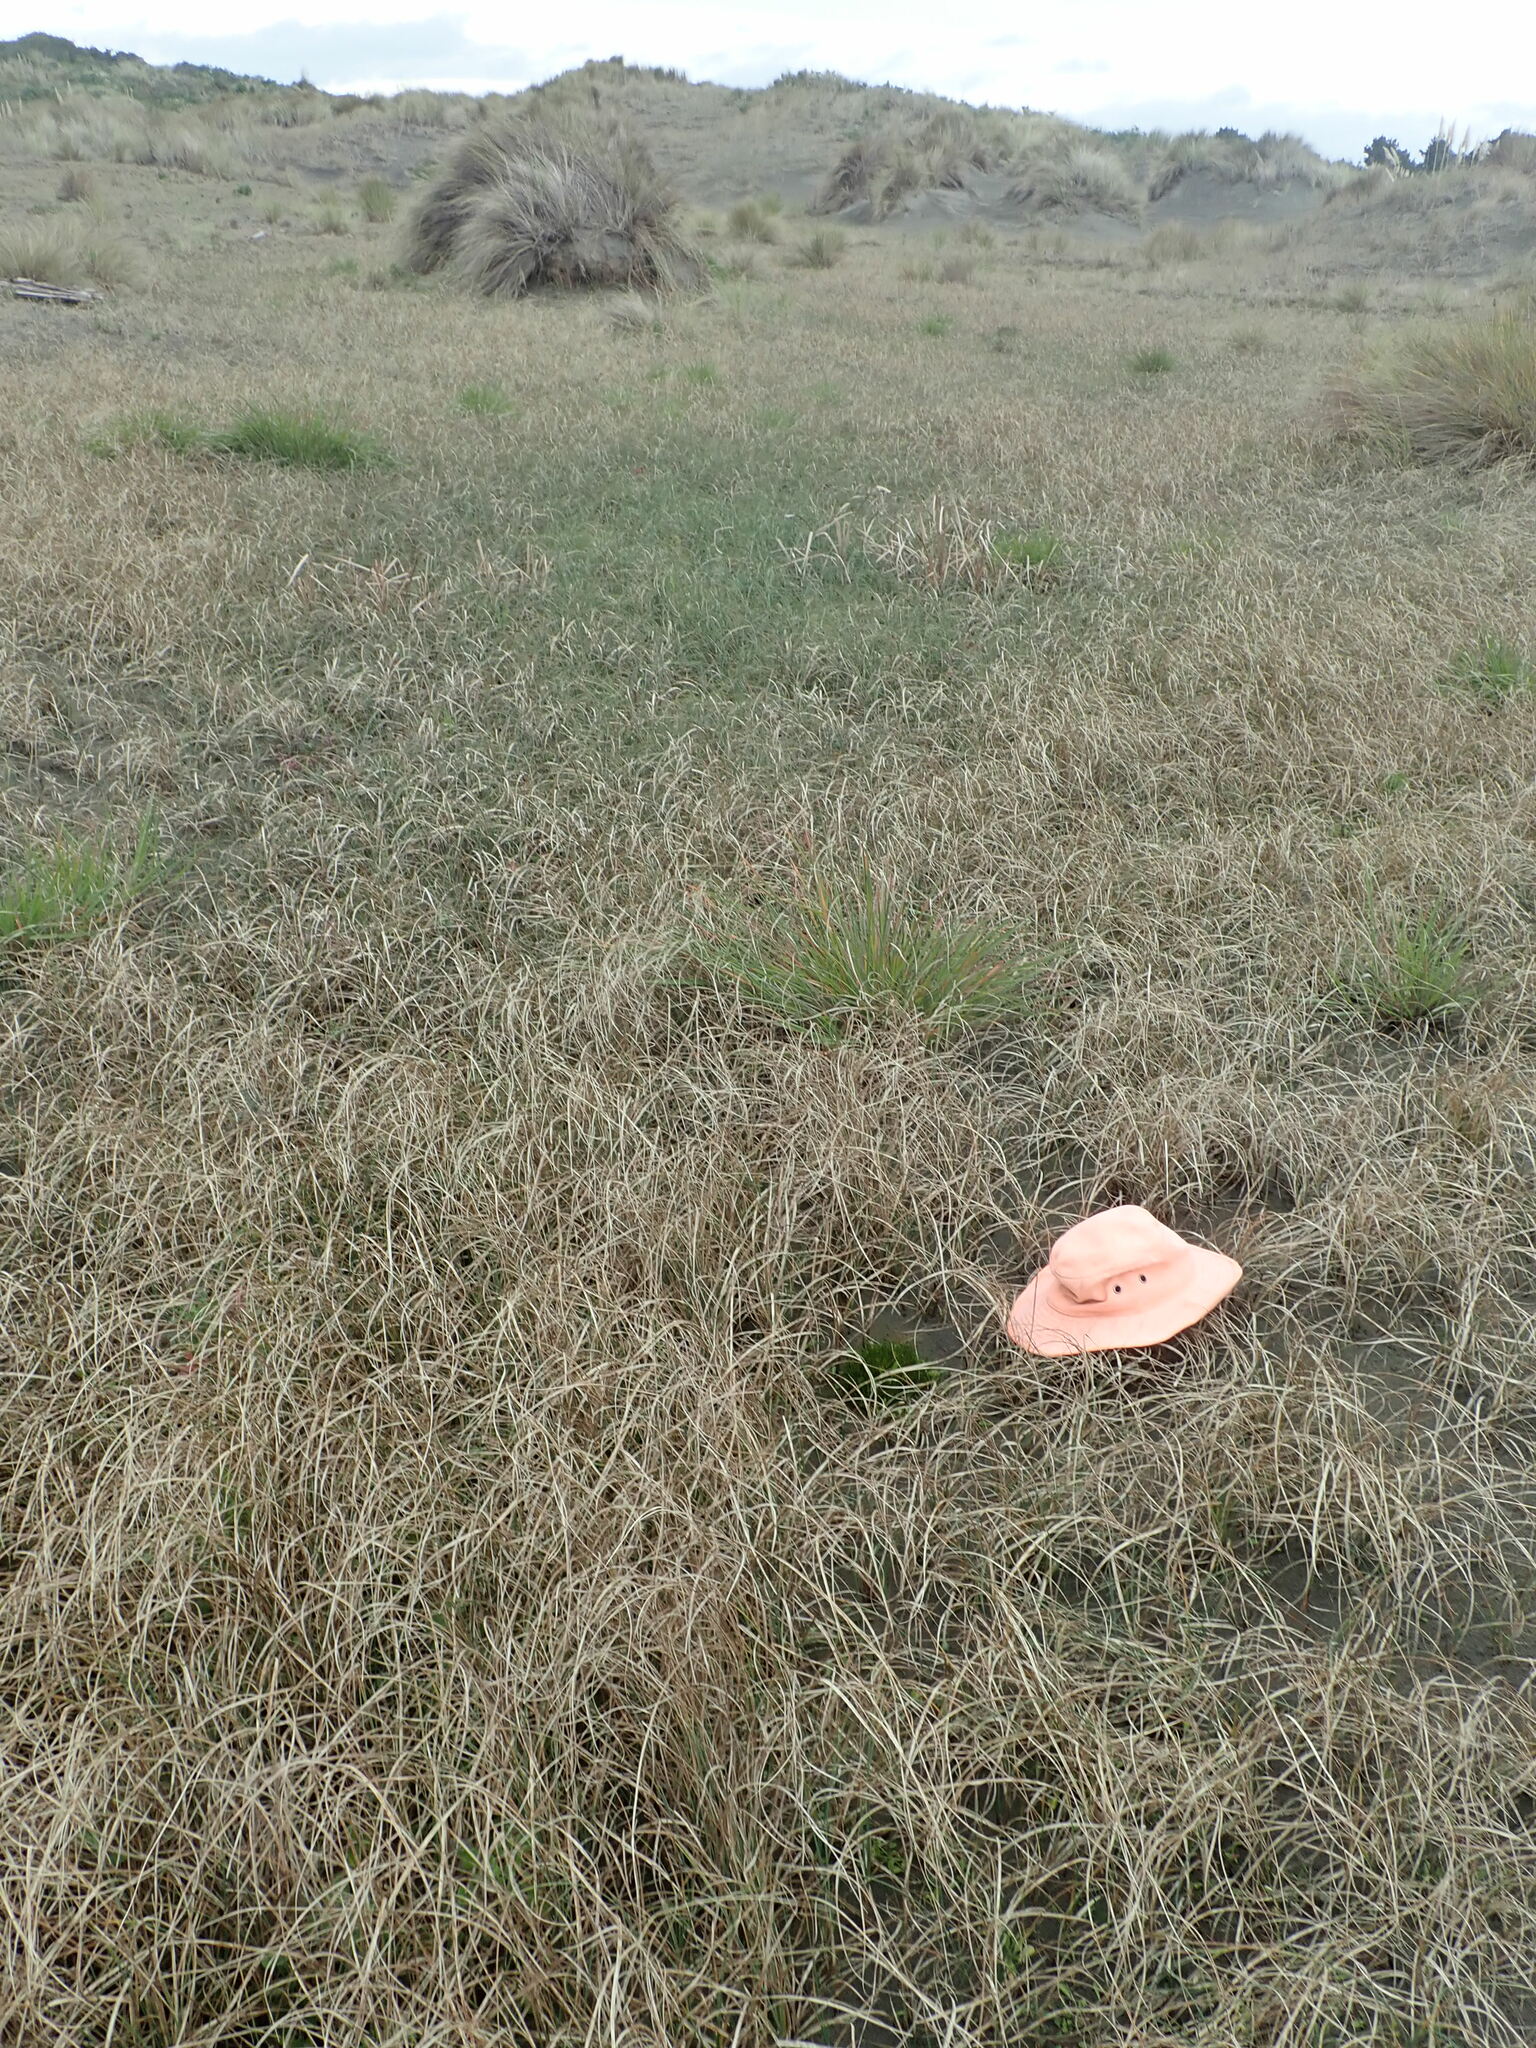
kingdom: Plantae
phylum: Tracheophyta
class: Liliopsida
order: Poales
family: Cyperaceae
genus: Isolepis
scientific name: Isolepis cernua
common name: Slender club-rush
